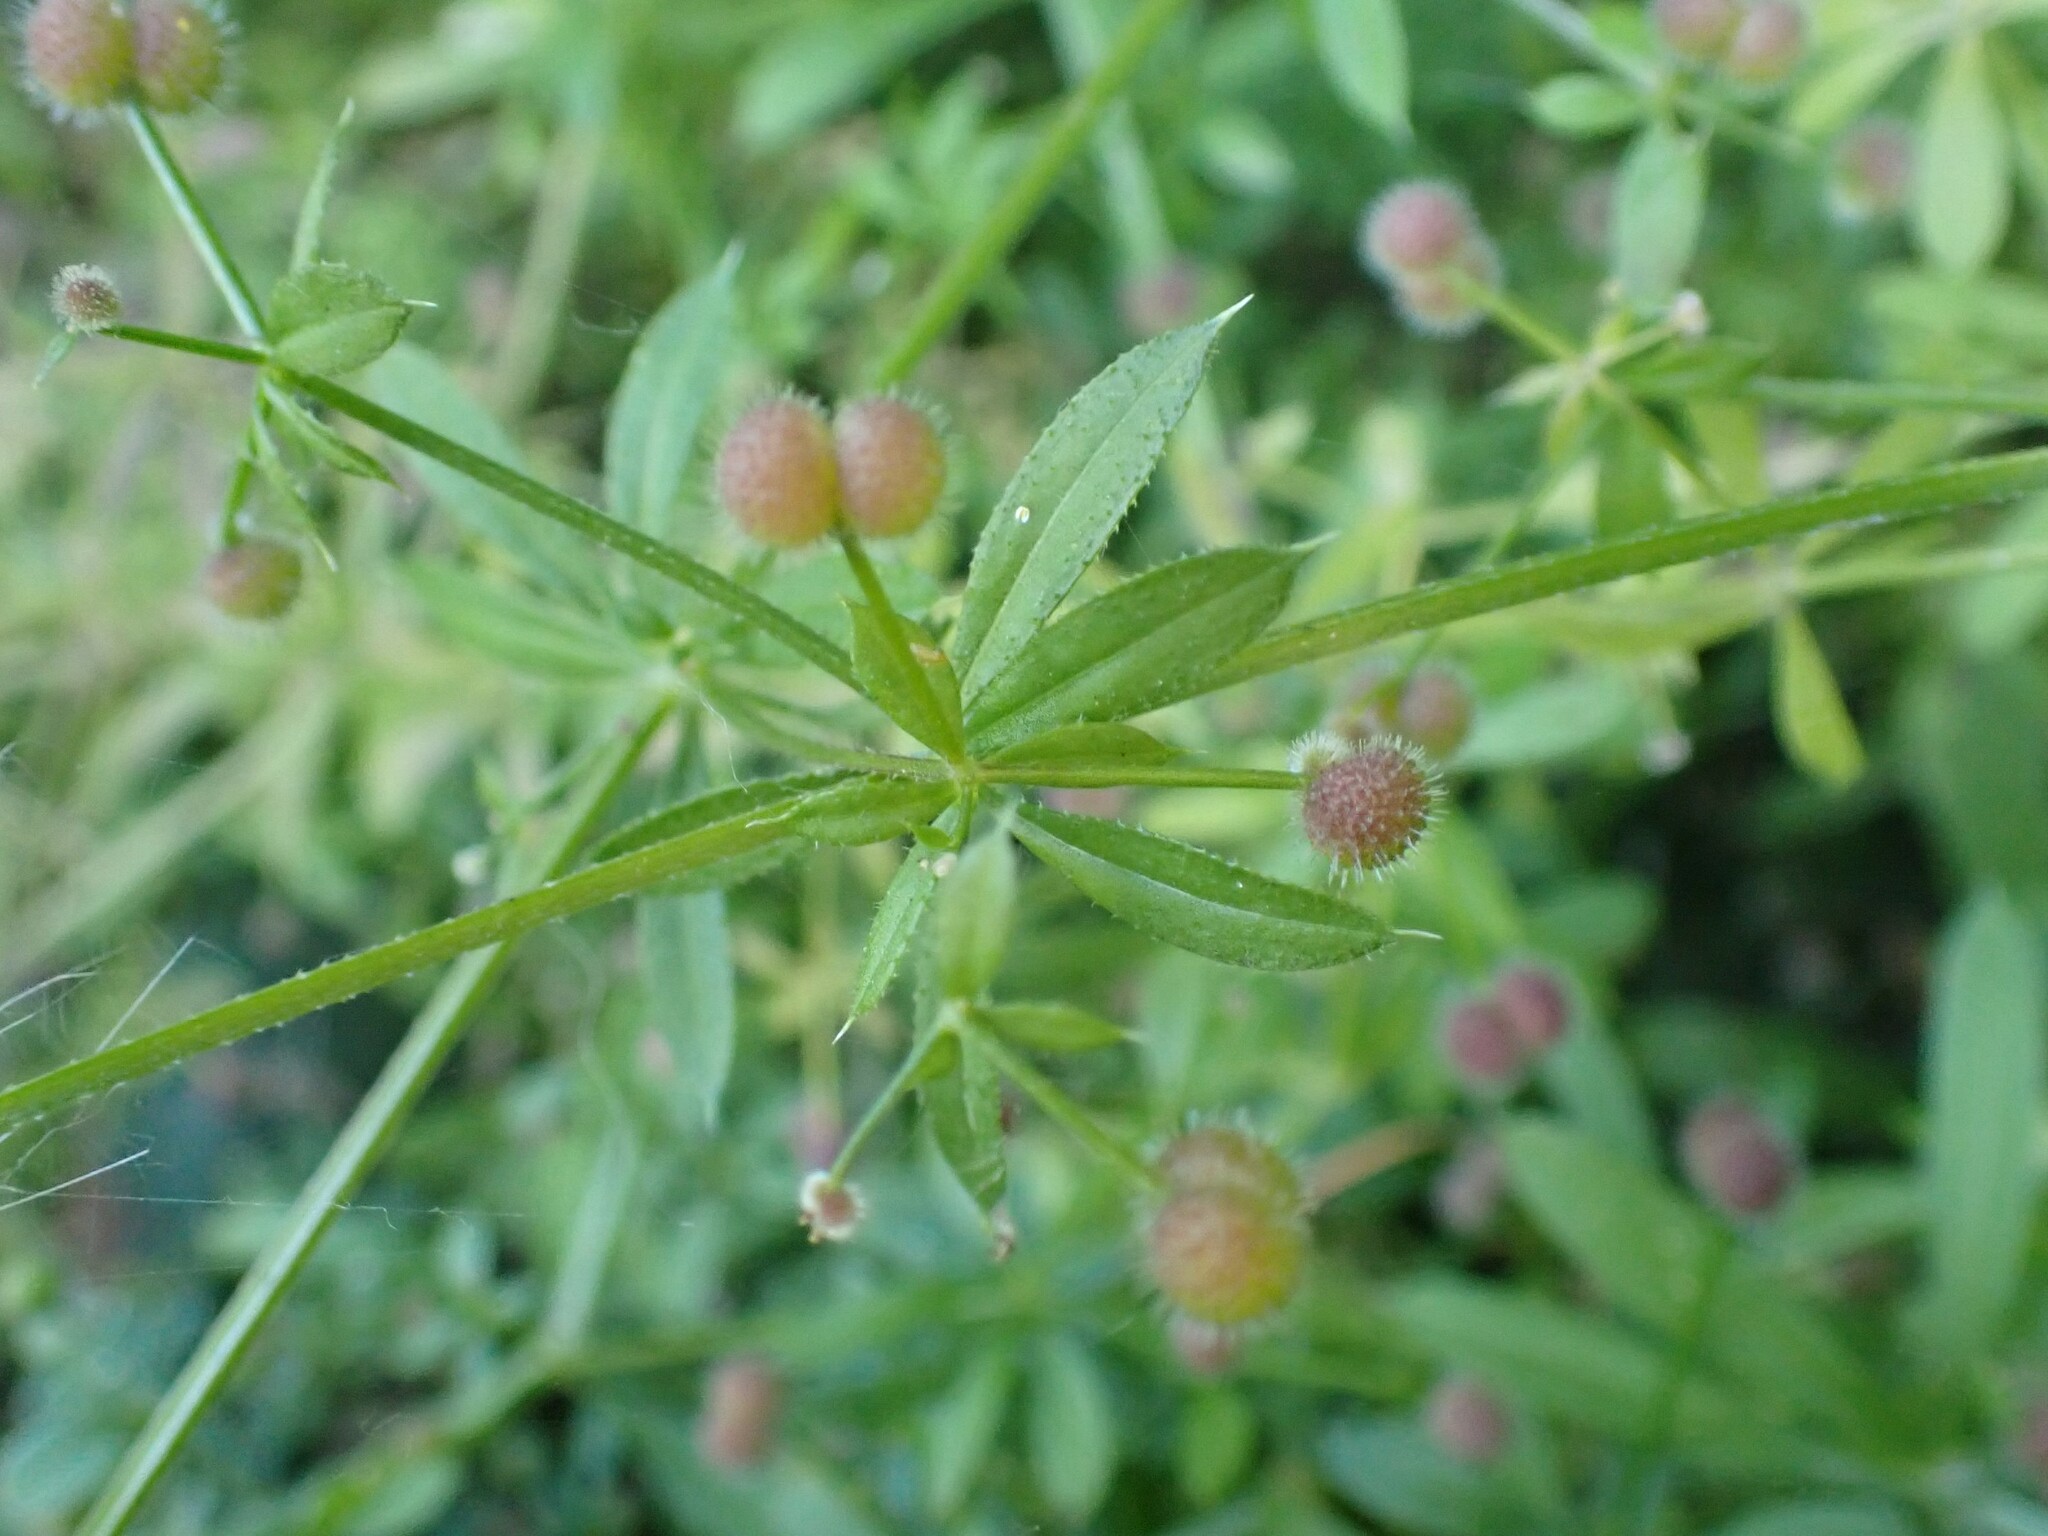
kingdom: Plantae
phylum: Tracheophyta
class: Magnoliopsida
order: Gentianales
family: Rubiaceae
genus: Galium
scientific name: Galium aparine
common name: Cleavers
